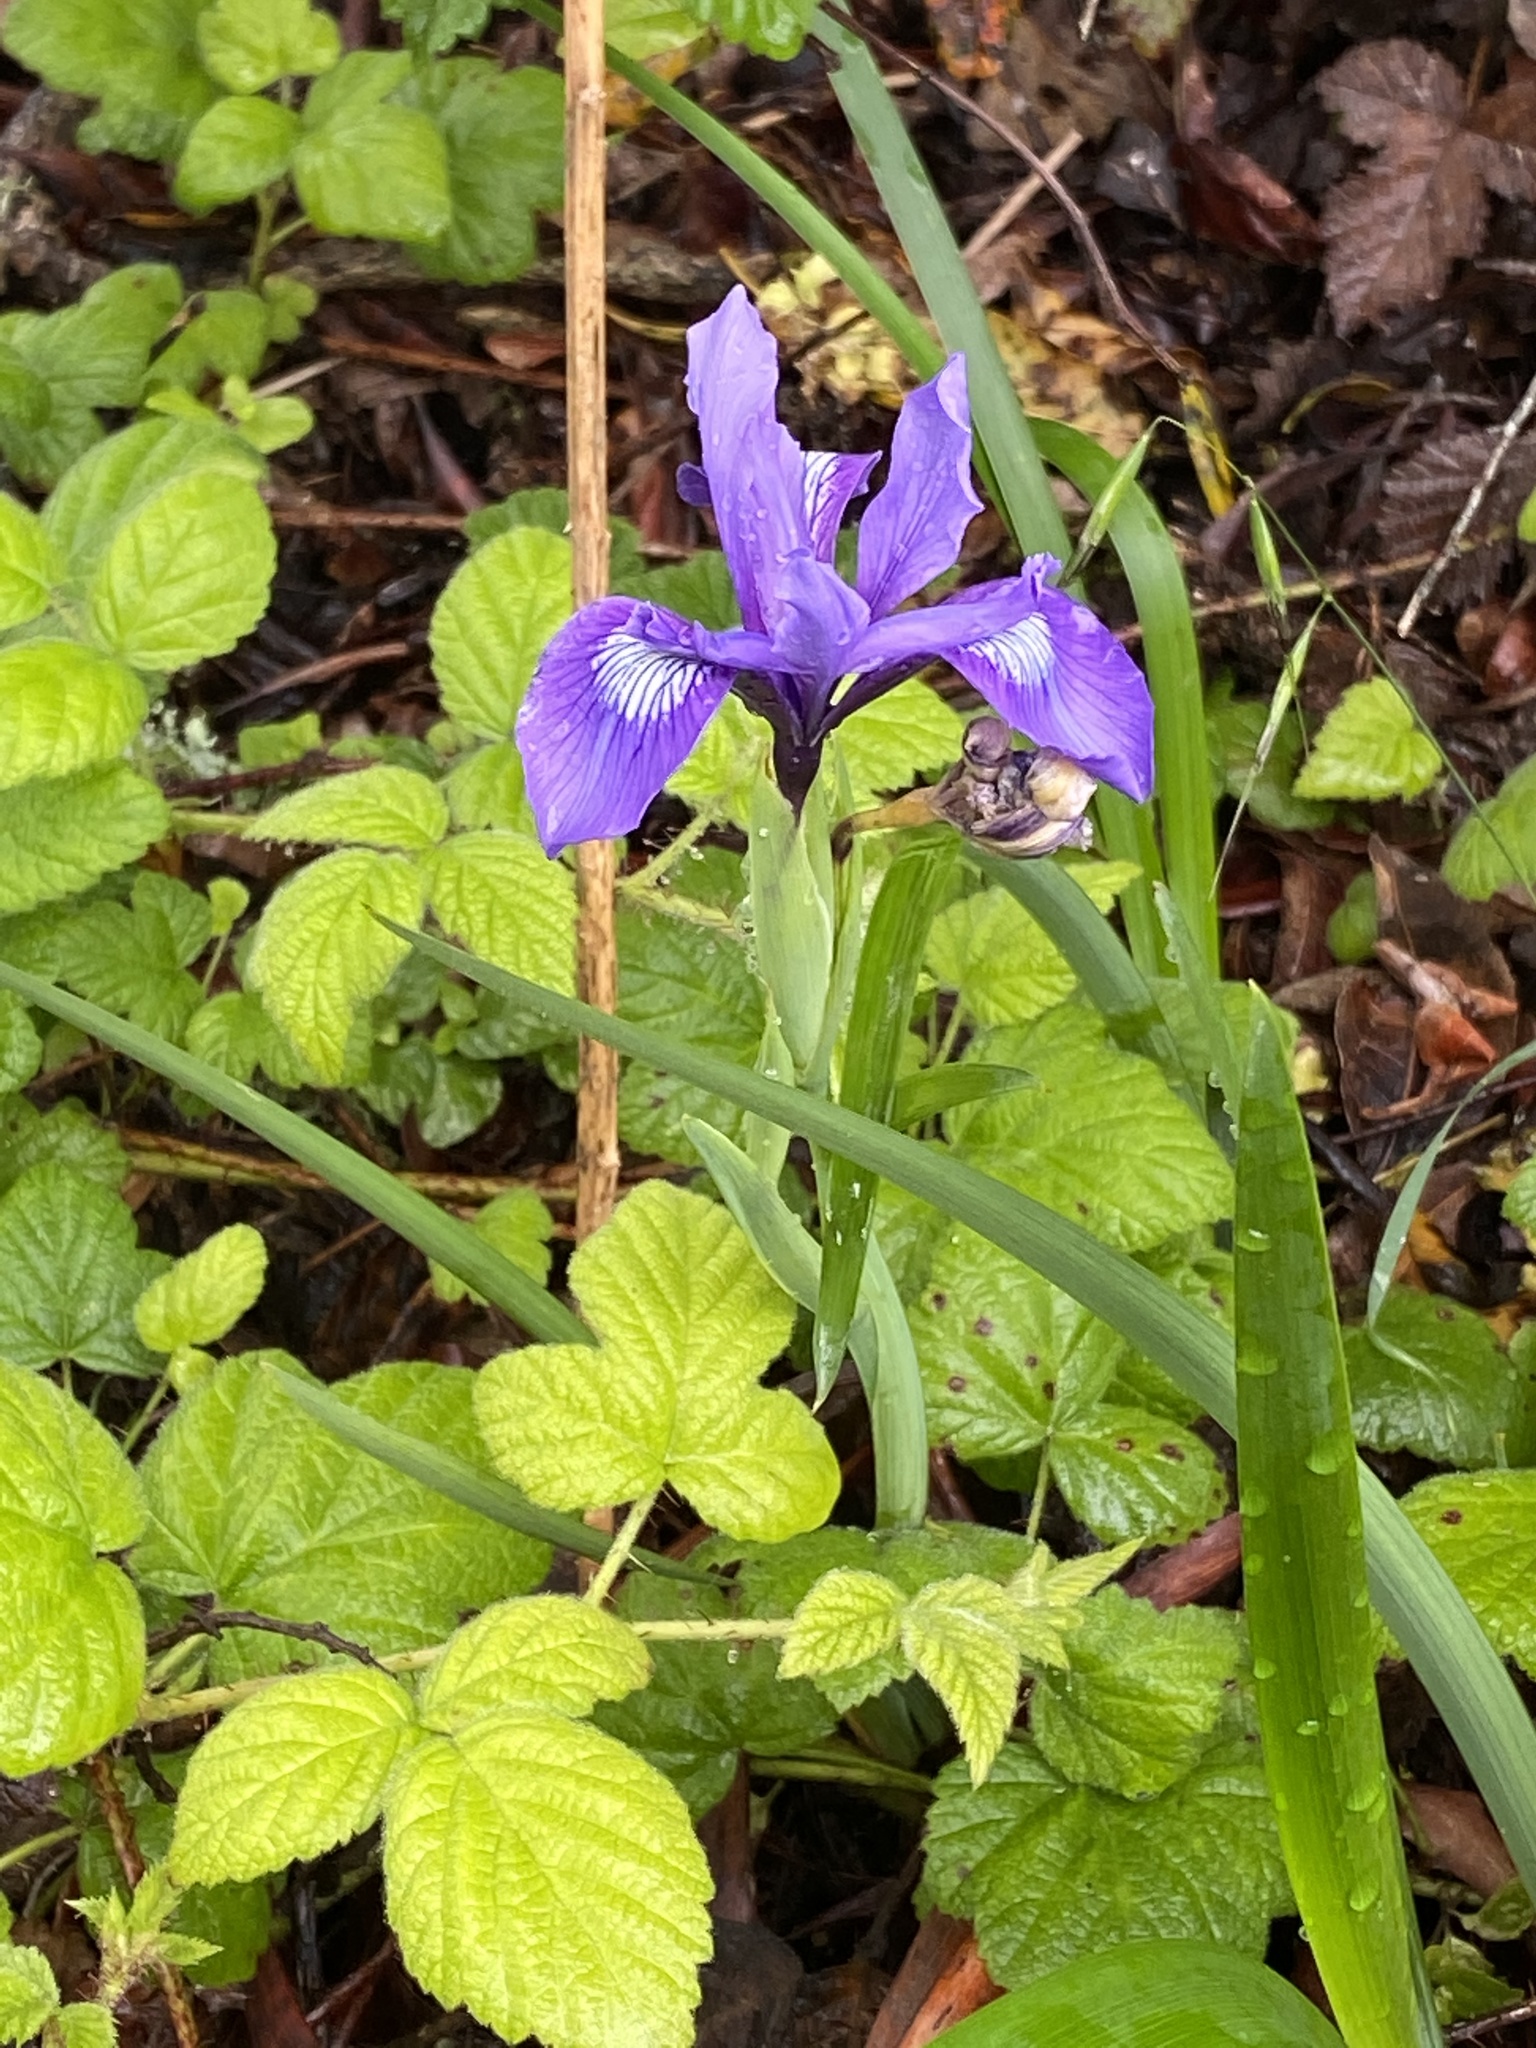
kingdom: Plantae
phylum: Tracheophyta
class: Liliopsida
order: Asparagales
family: Iridaceae
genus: Iris
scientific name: Iris douglasiana
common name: Marin iris
